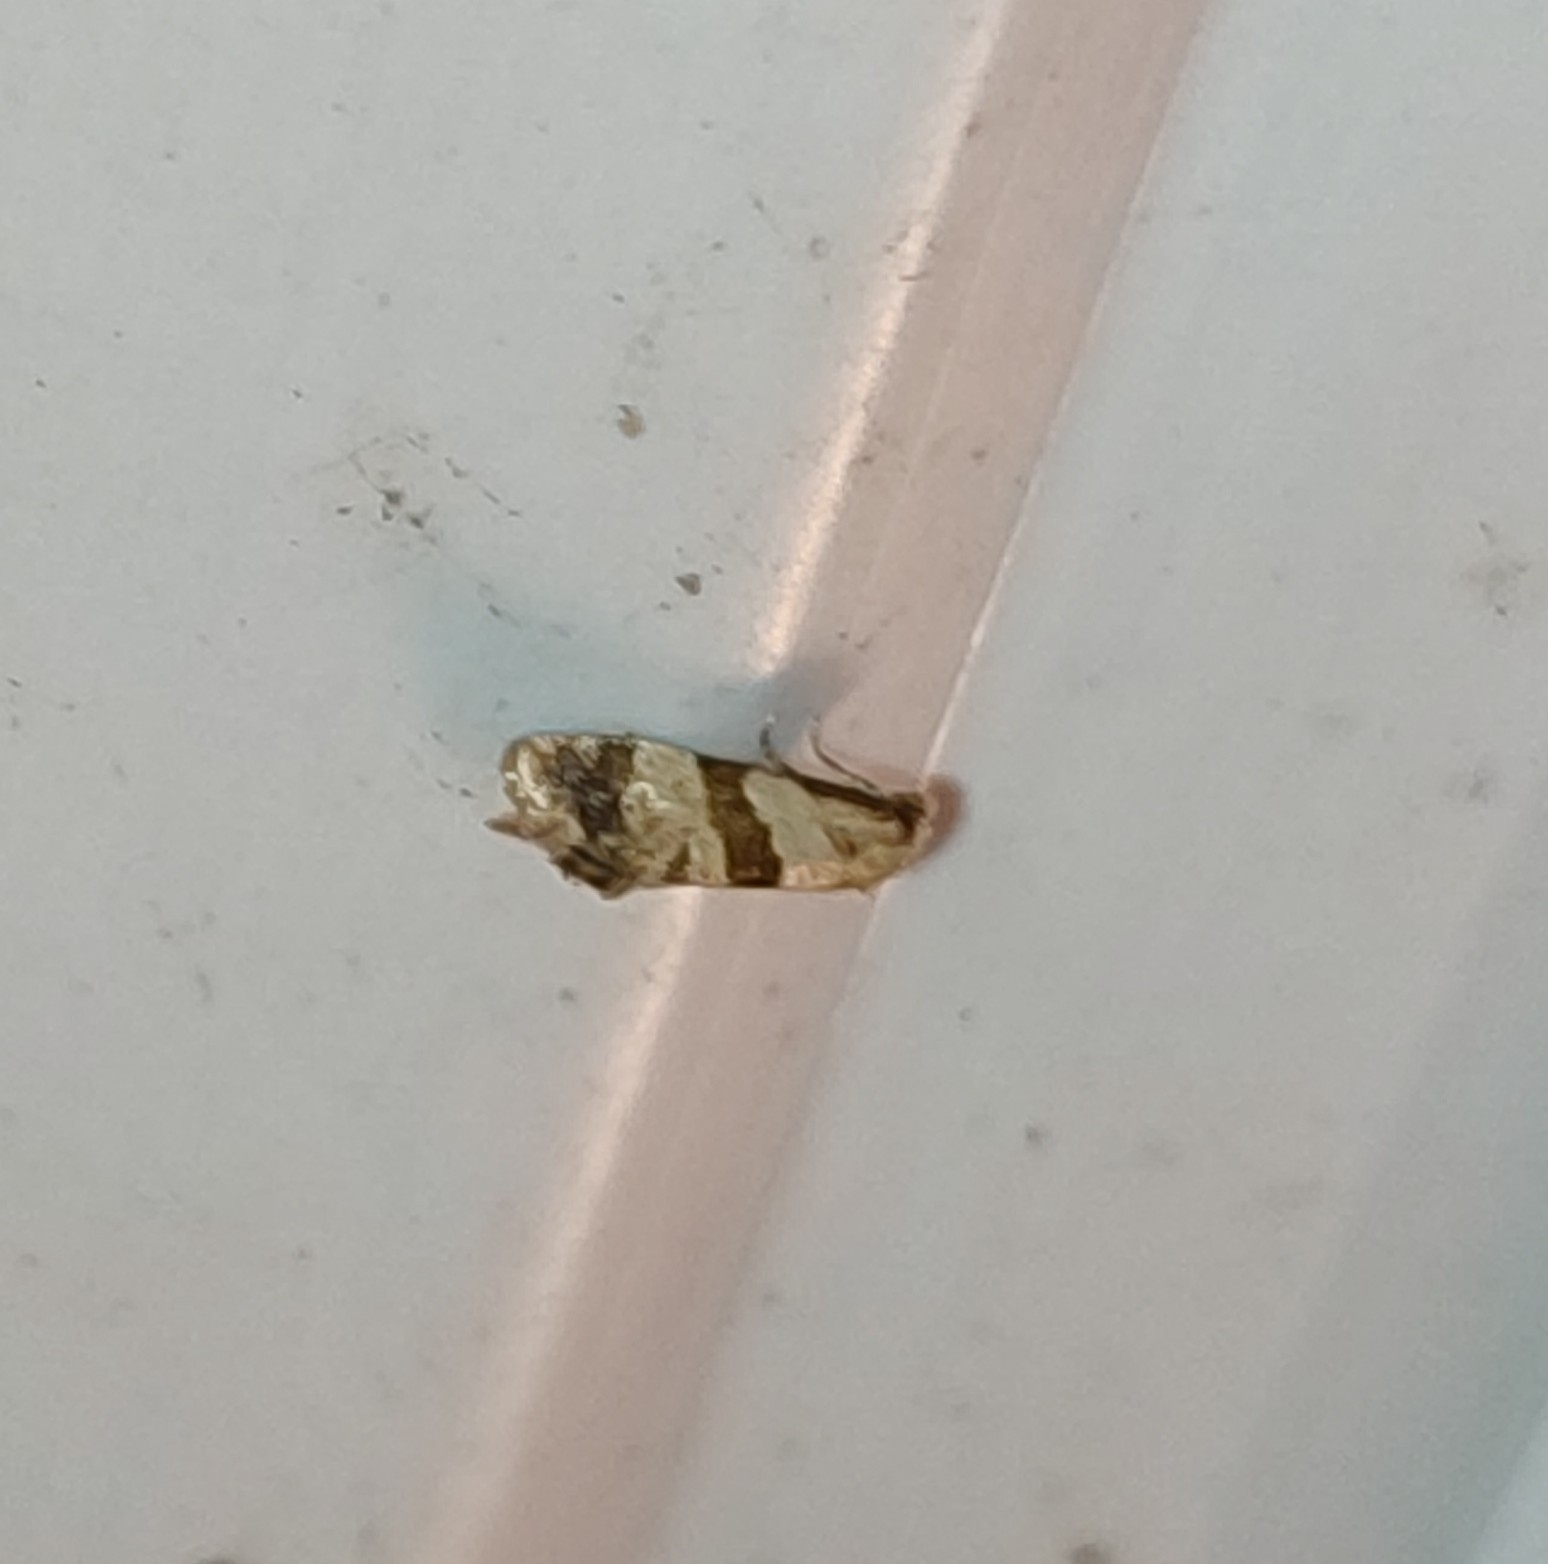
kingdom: Animalia
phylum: Arthropoda
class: Insecta
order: Lepidoptera
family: Tortricidae
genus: Phalonidia
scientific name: Phalonidia contractana
